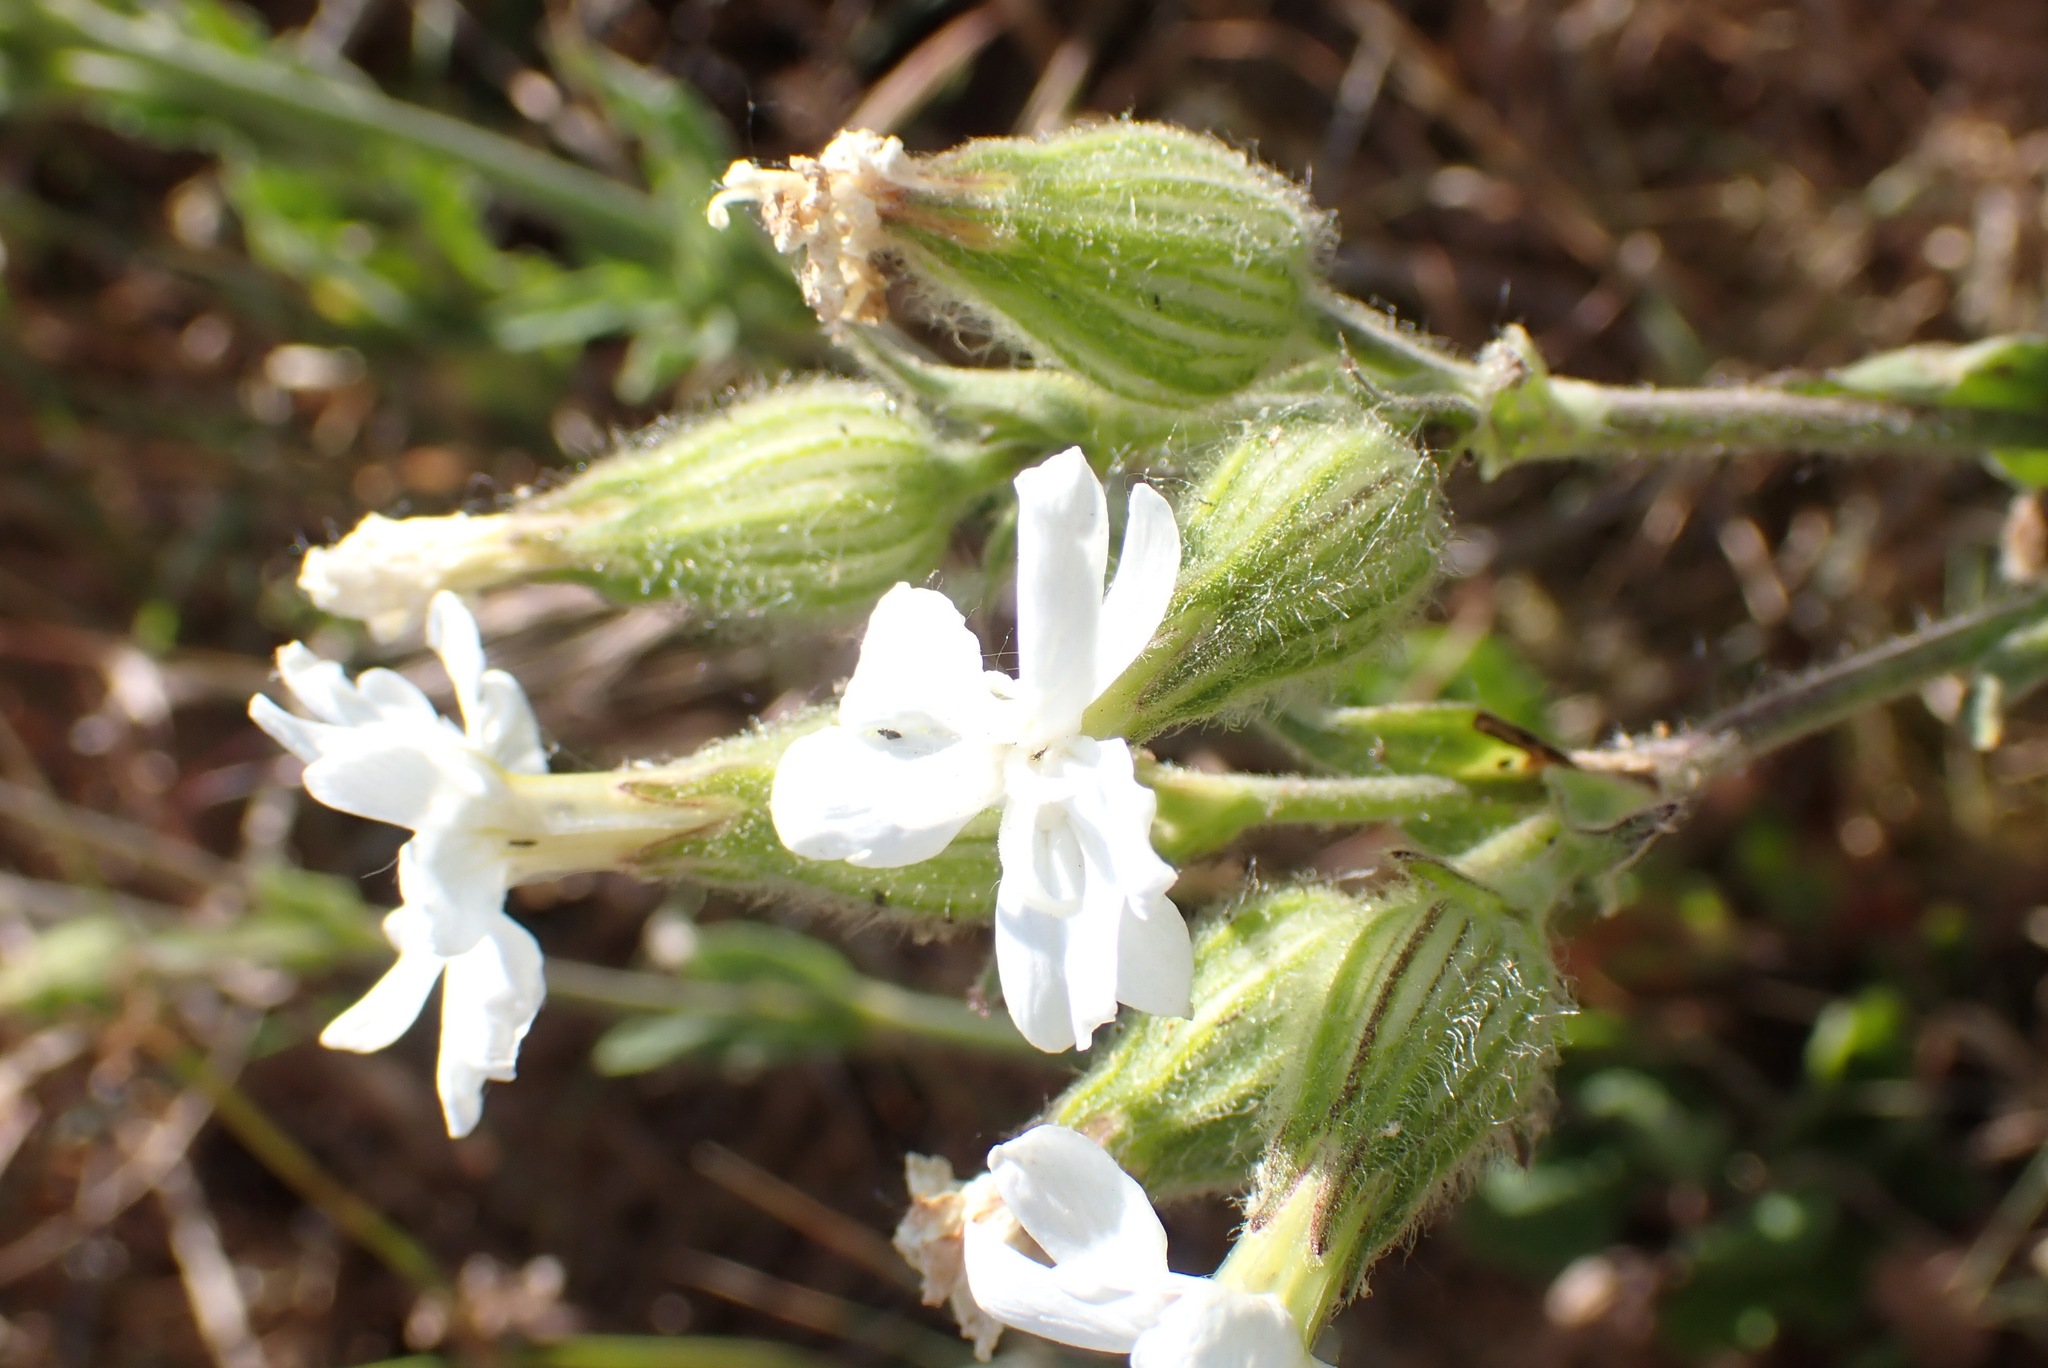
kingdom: Plantae
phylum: Tracheophyta
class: Magnoliopsida
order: Caryophyllales
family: Caryophyllaceae
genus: Silene
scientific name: Silene latifolia
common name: White campion
